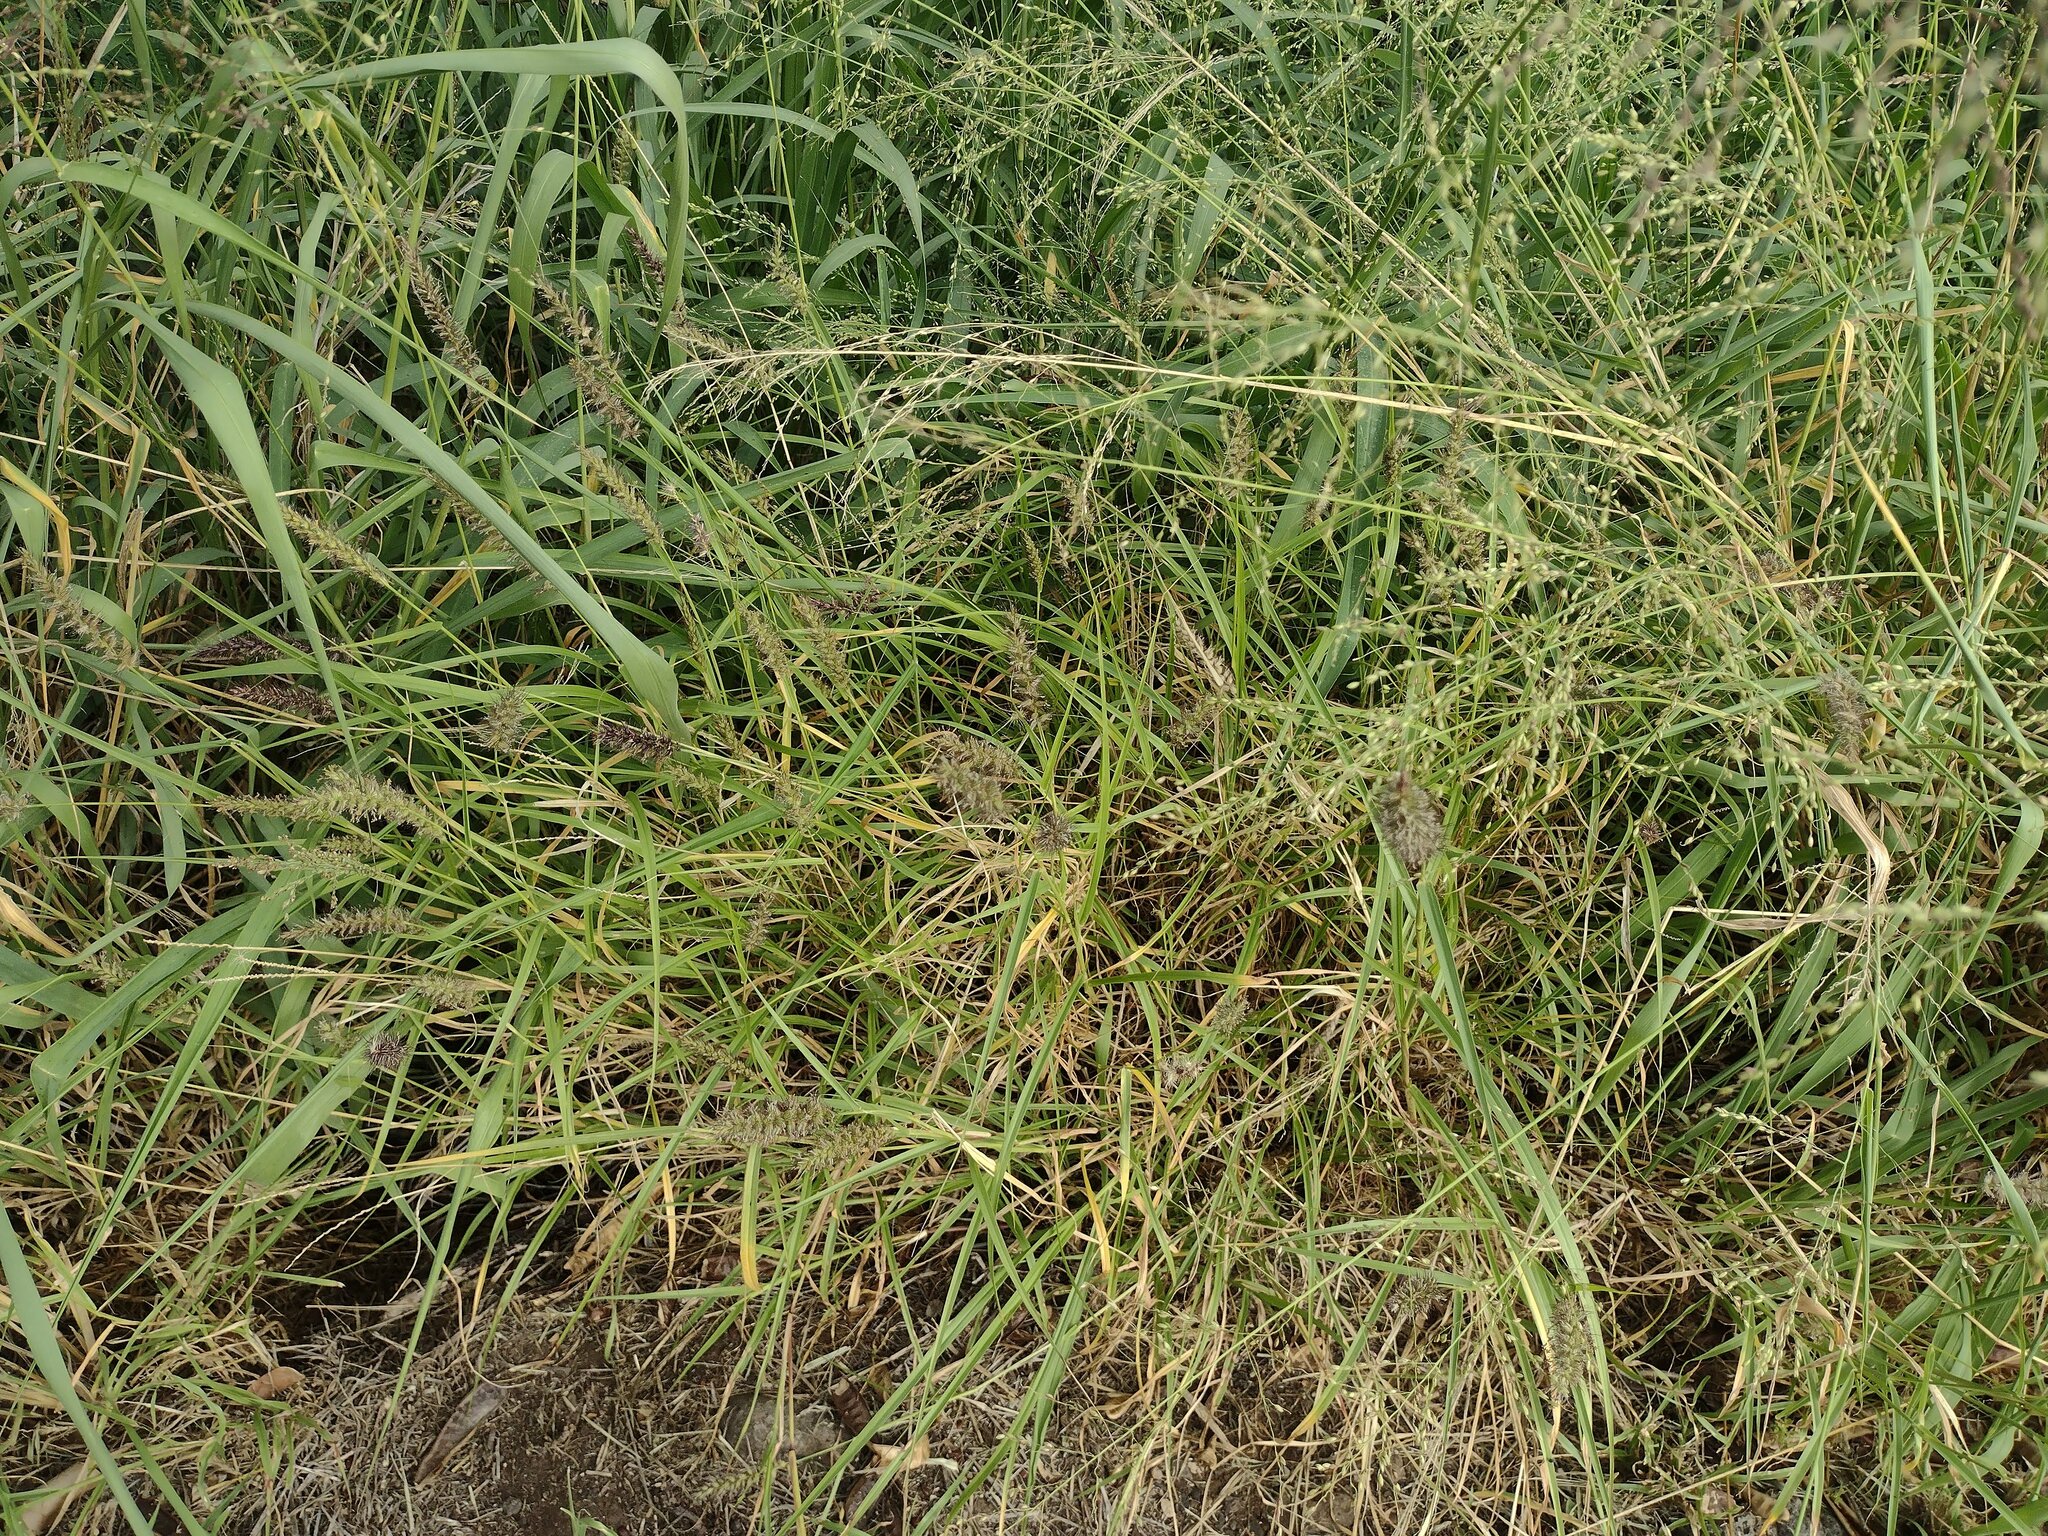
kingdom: Plantae
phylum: Tracheophyta
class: Liliopsida
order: Poales
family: Poaceae
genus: Cenchrus
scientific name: Cenchrus ciliaris
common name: Buffelgrass
